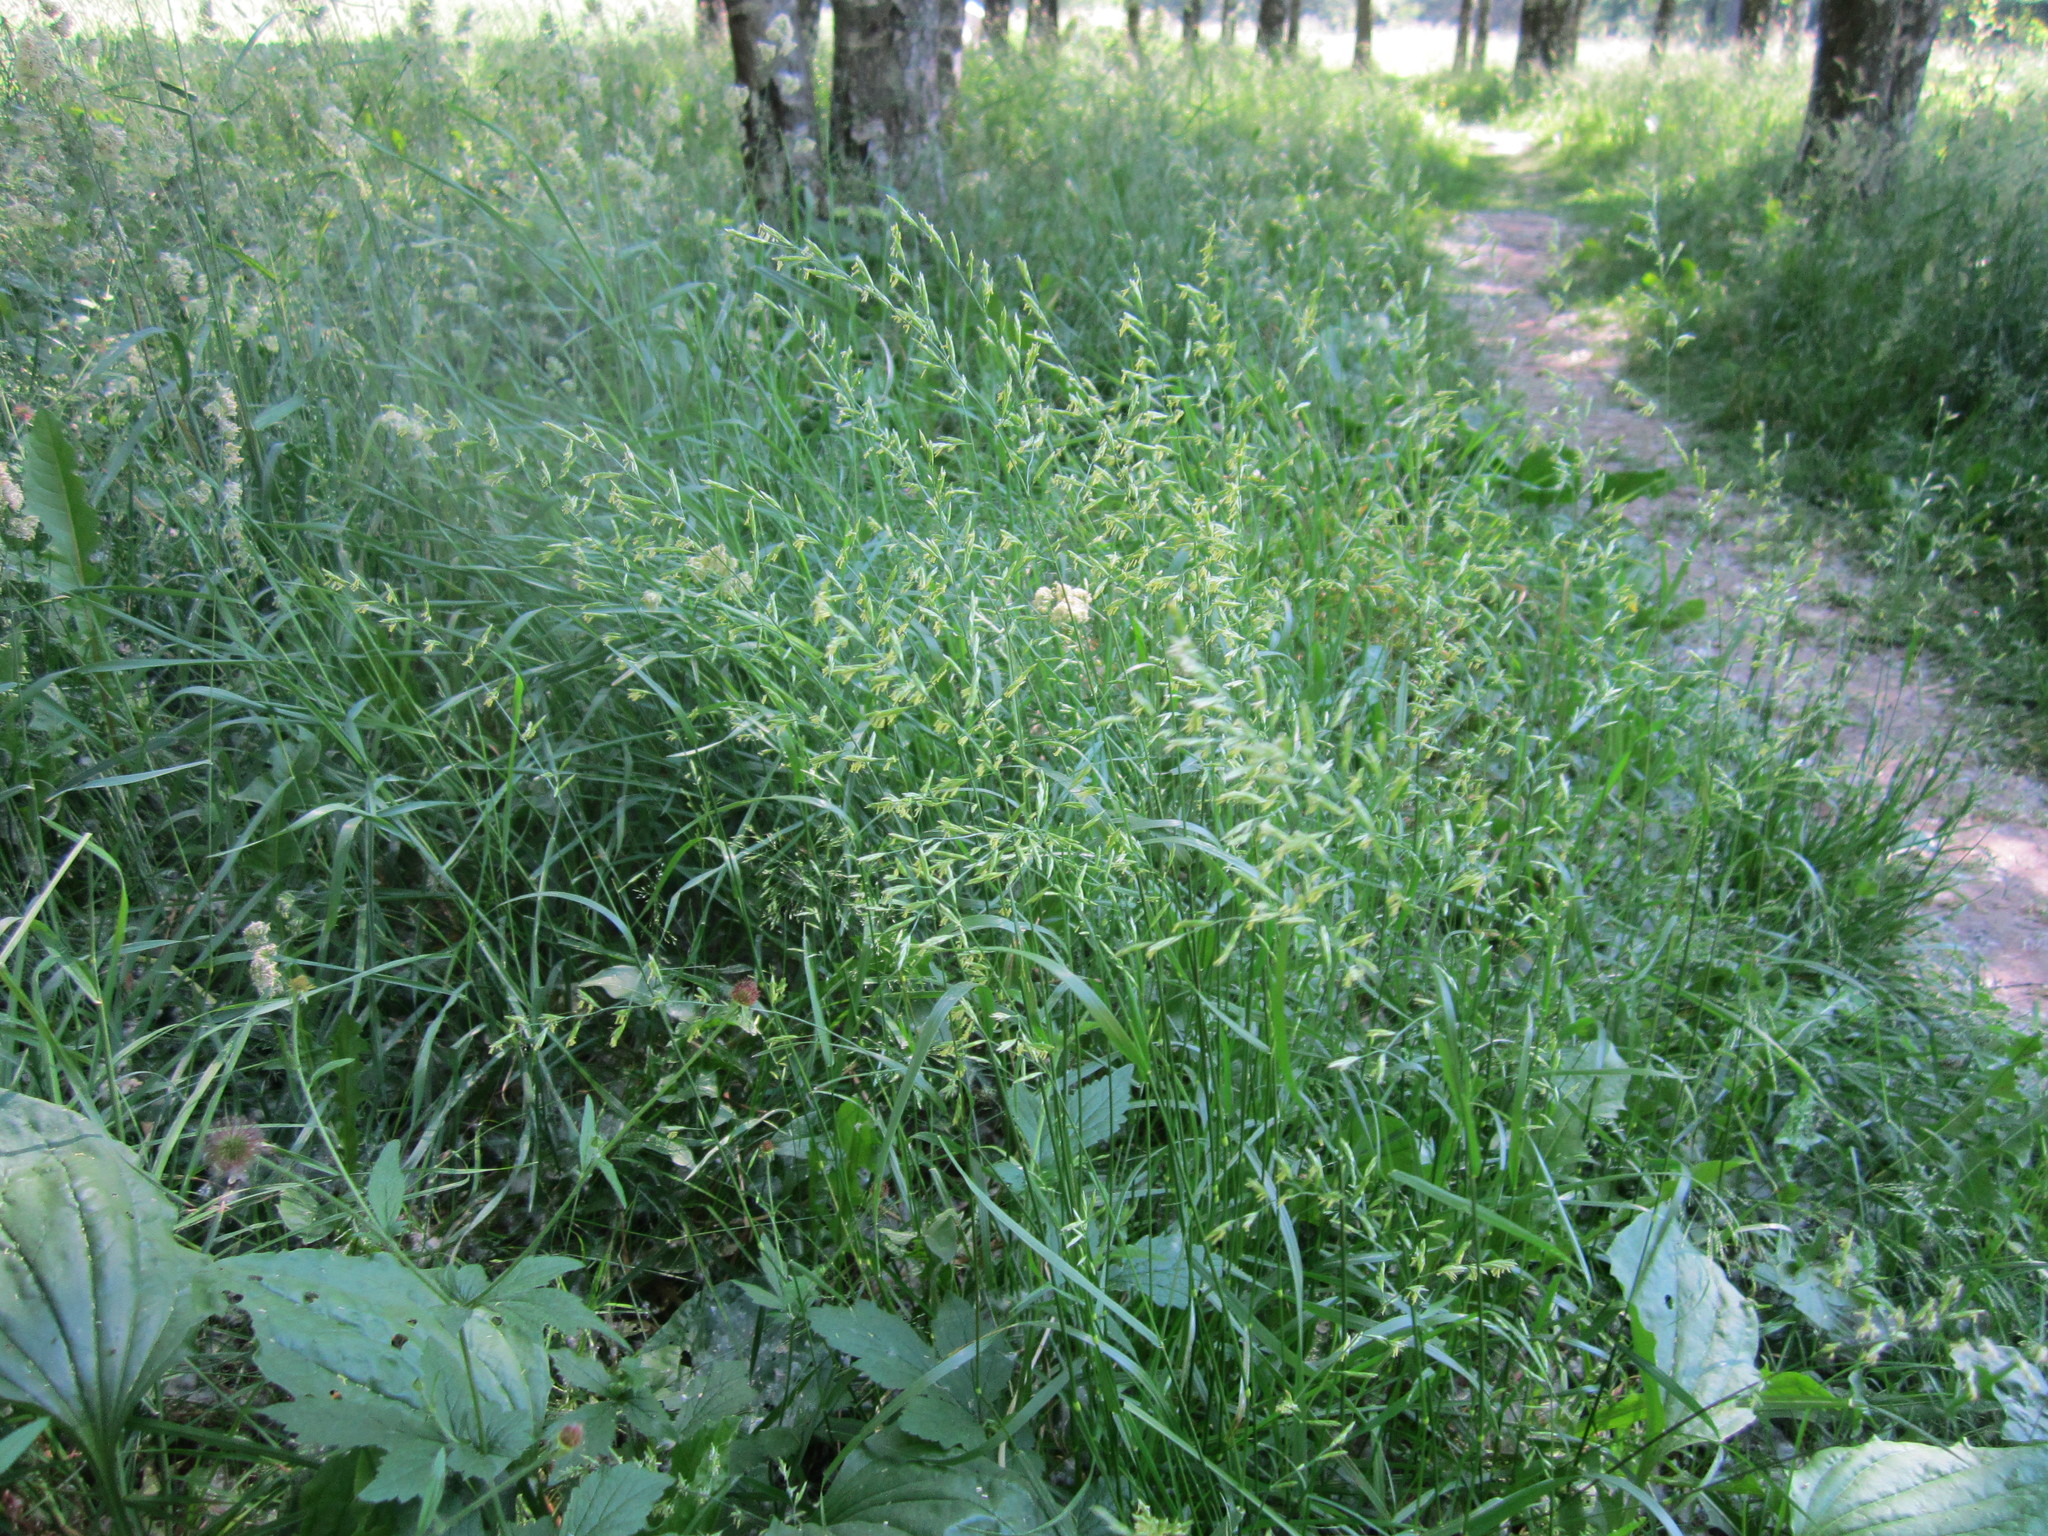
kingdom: Plantae
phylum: Tracheophyta
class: Liliopsida
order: Poales
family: Poaceae
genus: Lolium
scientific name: Lolium pratense
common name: Dover grass
